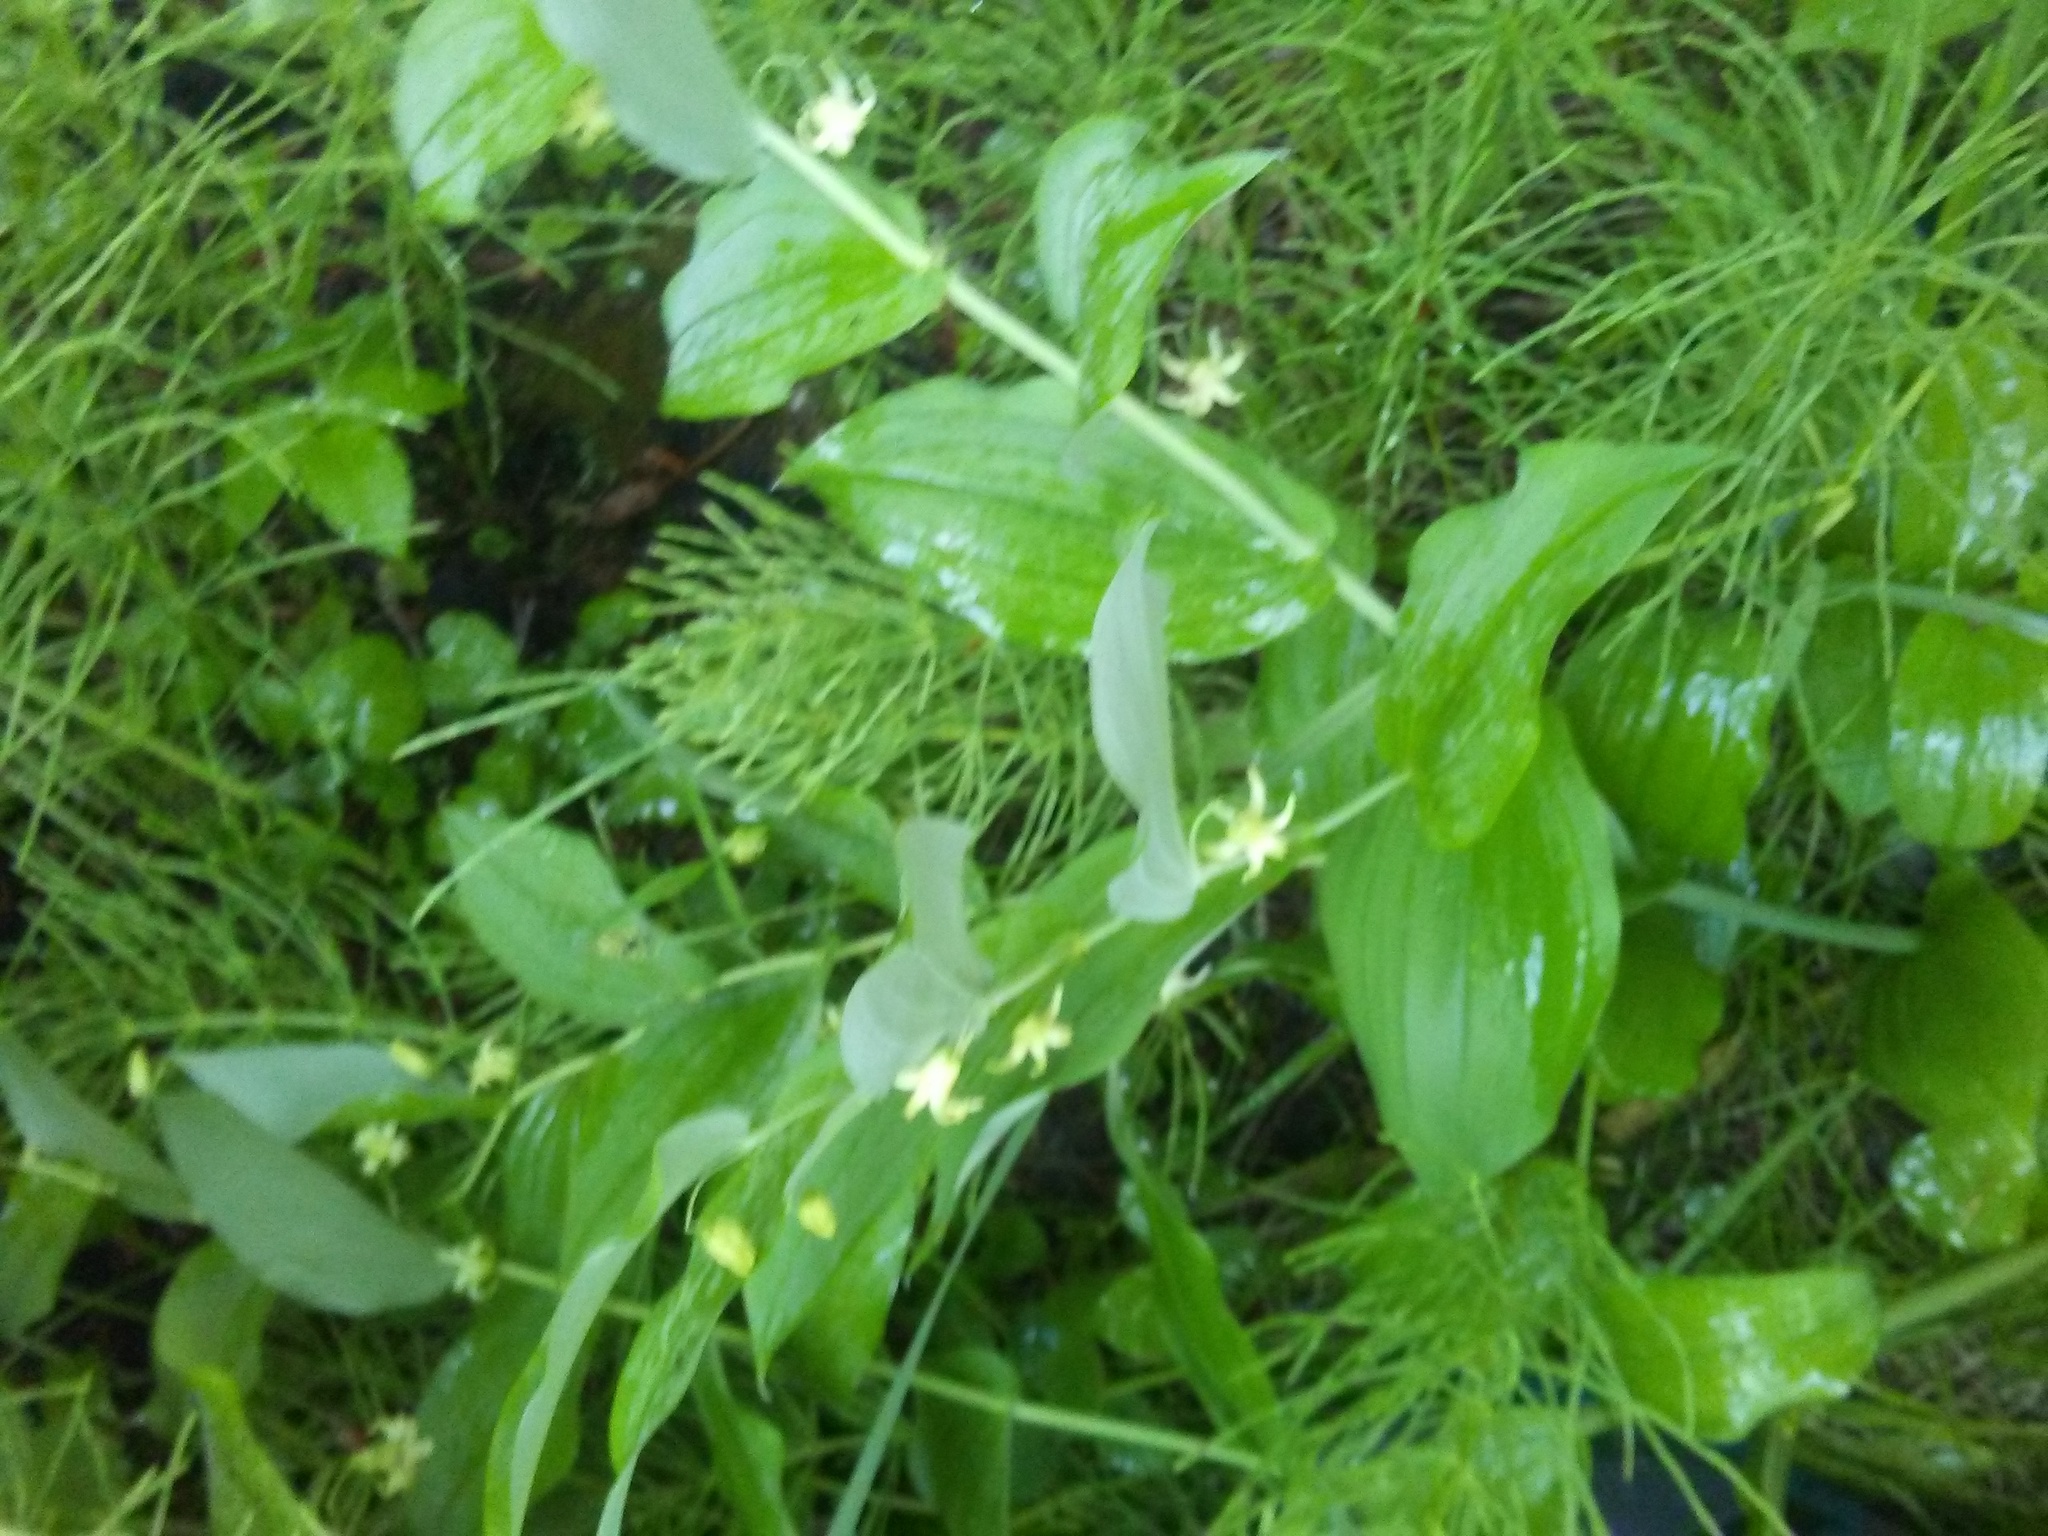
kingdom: Plantae
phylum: Tracheophyta
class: Polypodiopsida
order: Equisetales
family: Equisetaceae
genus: Equisetum
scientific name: Equisetum arvense
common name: Field horsetail
